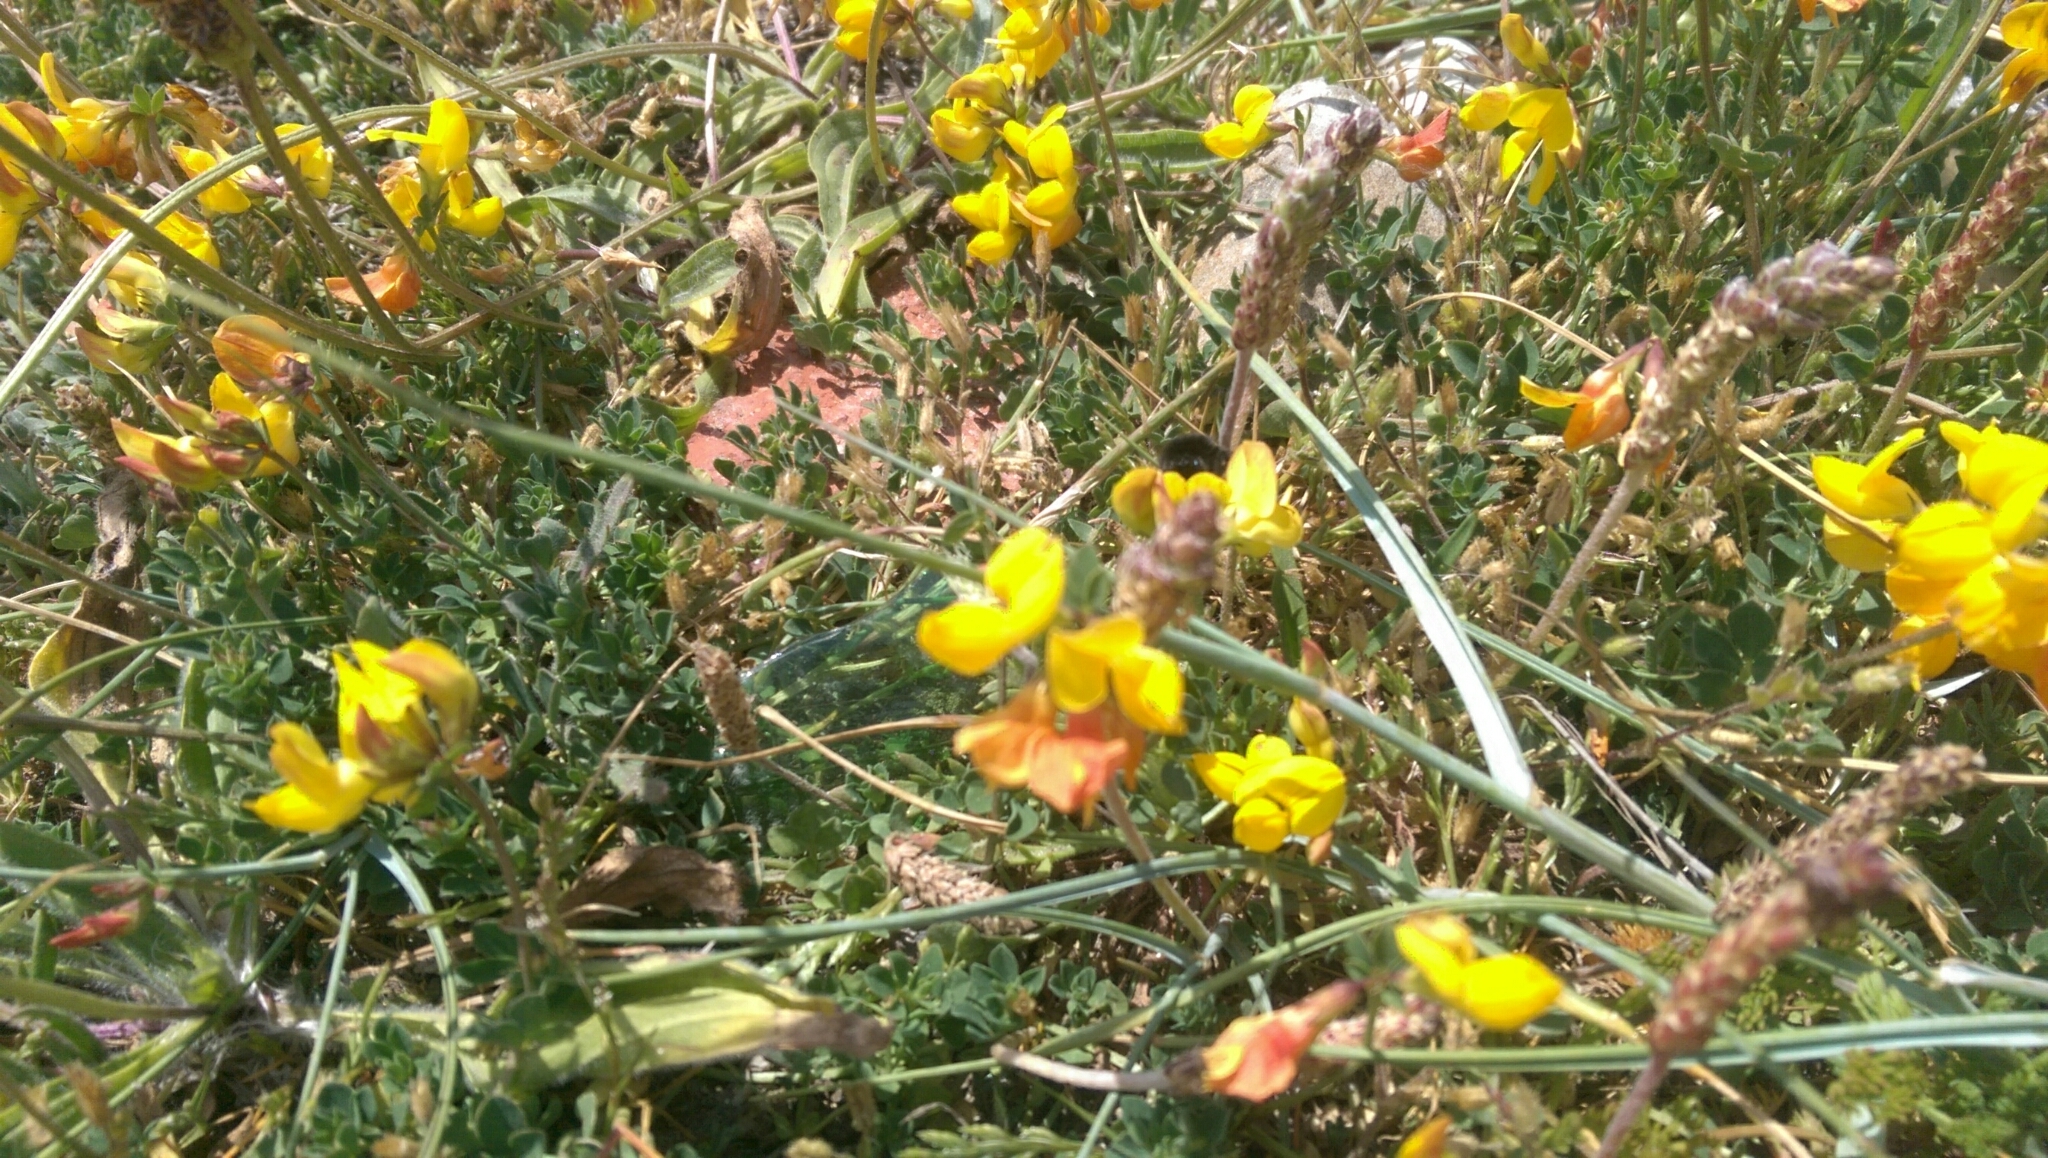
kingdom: Plantae
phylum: Tracheophyta
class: Magnoliopsida
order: Fabales
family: Fabaceae
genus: Lotus
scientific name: Lotus corniculatus
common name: Common bird's-foot-trefoil
